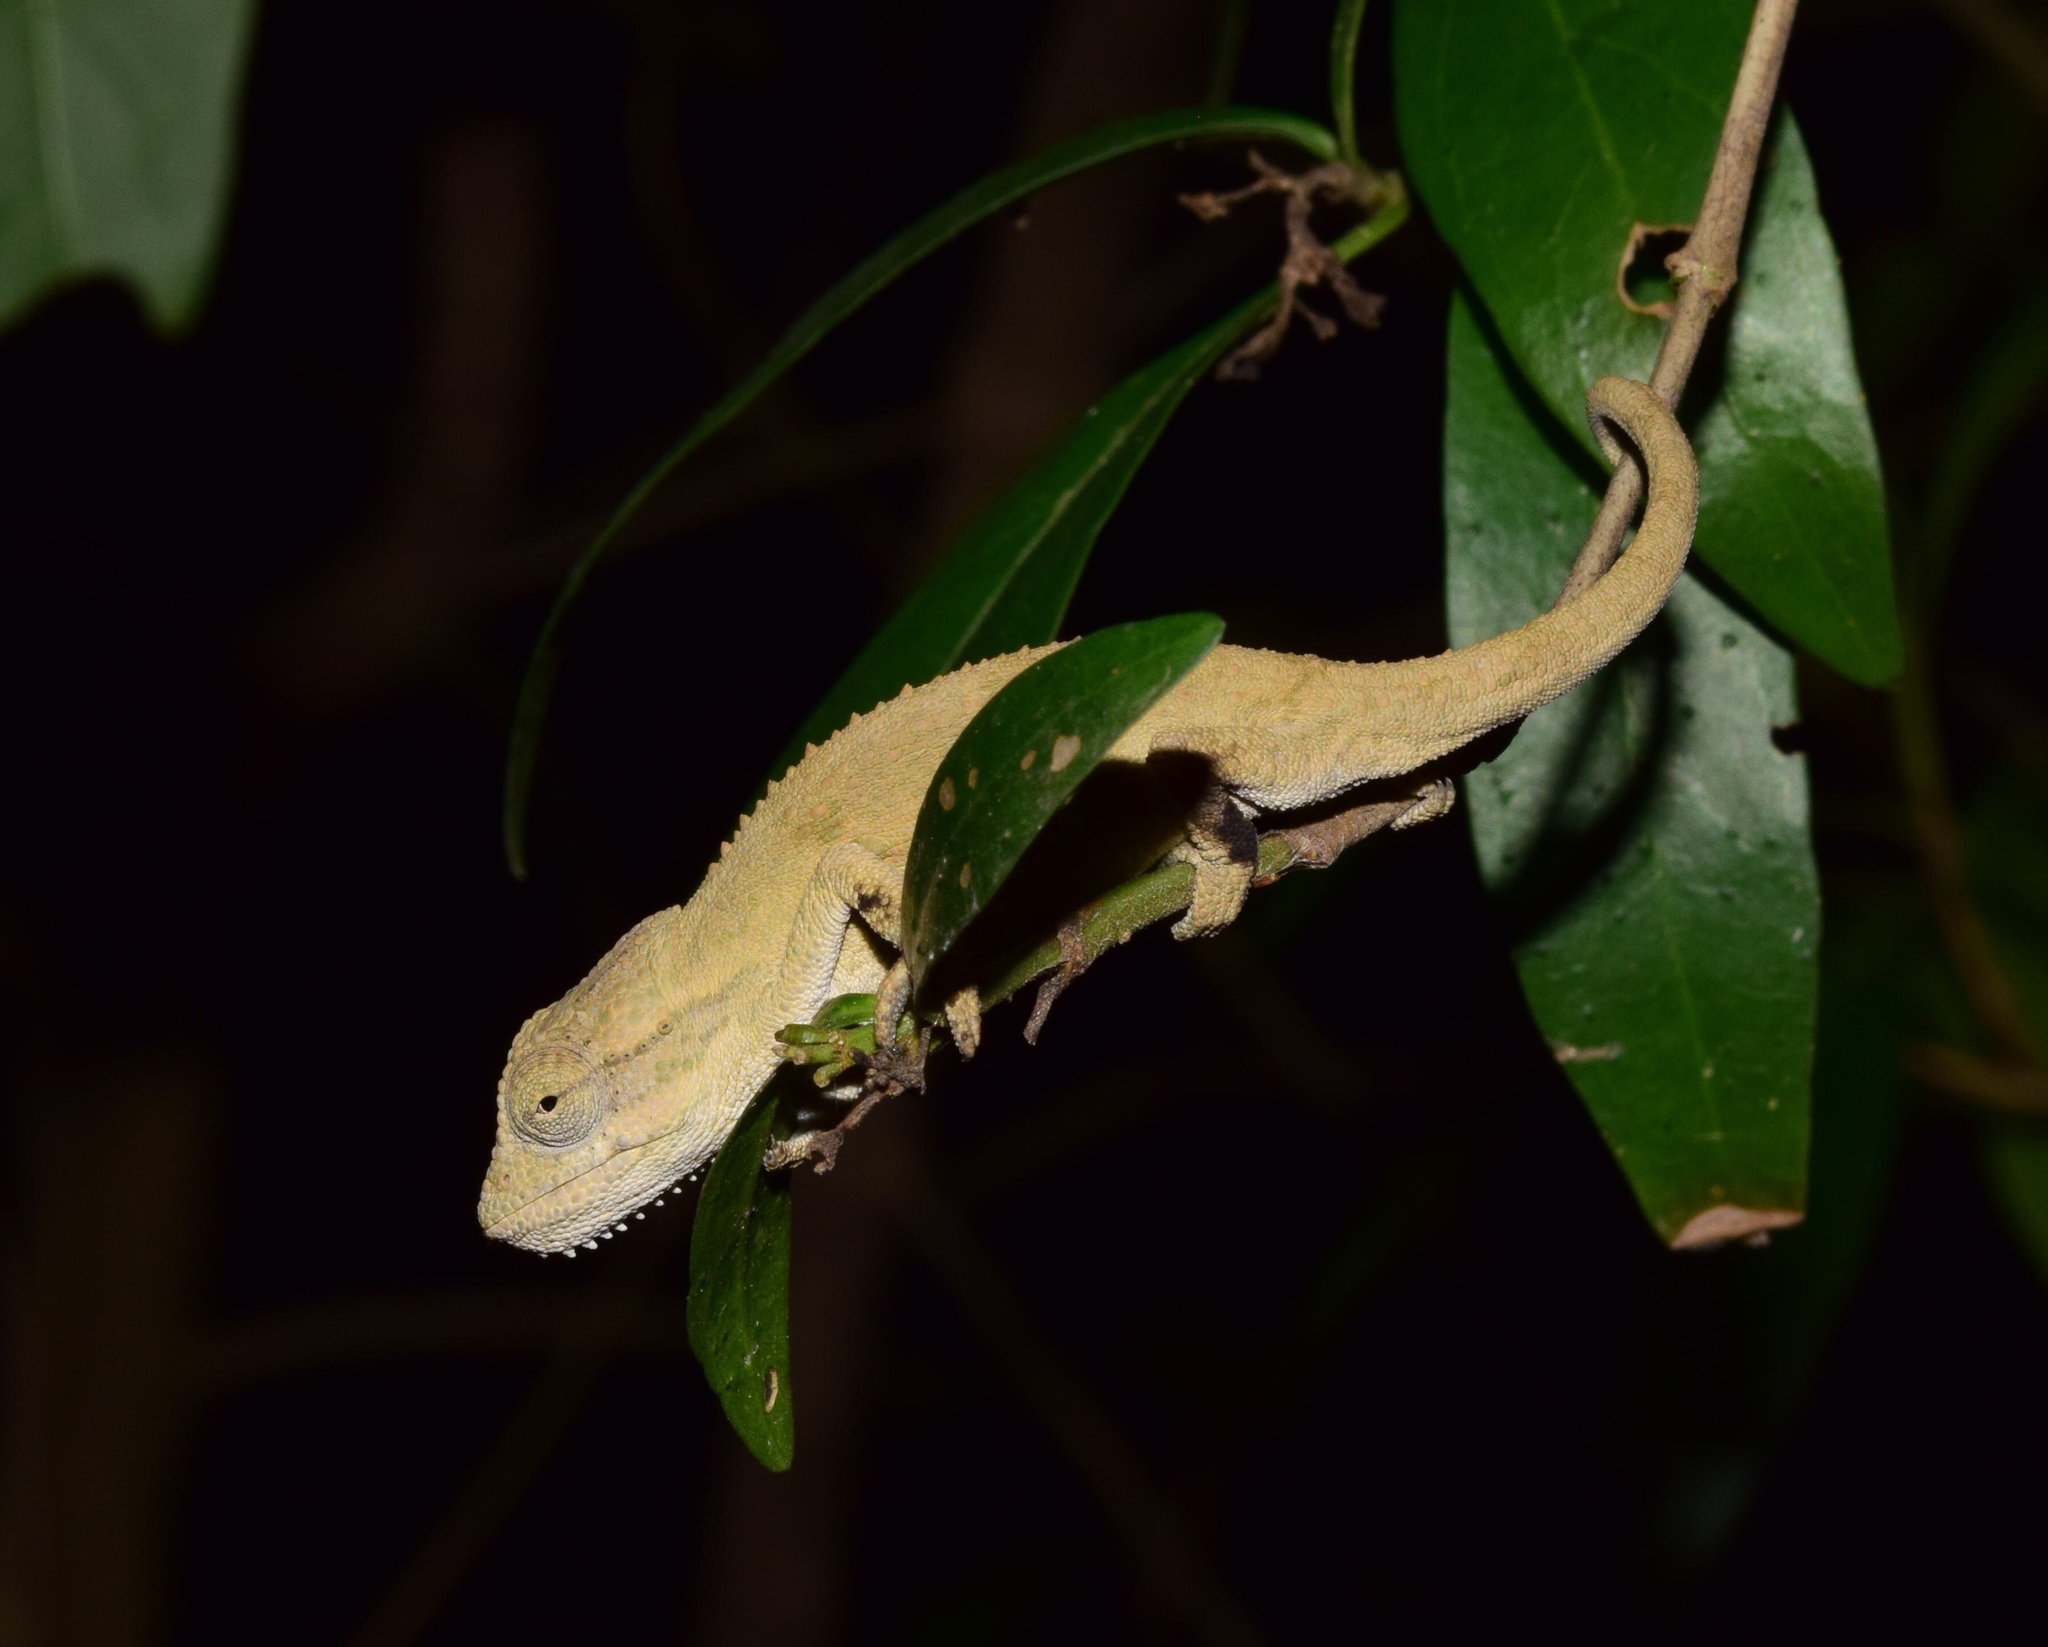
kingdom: Animalia
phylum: Chordata
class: Squamata
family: Chamaeleonidae
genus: Bradypodion
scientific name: Bradypodion melanocephalum
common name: Black-headed dwarf chameleon
